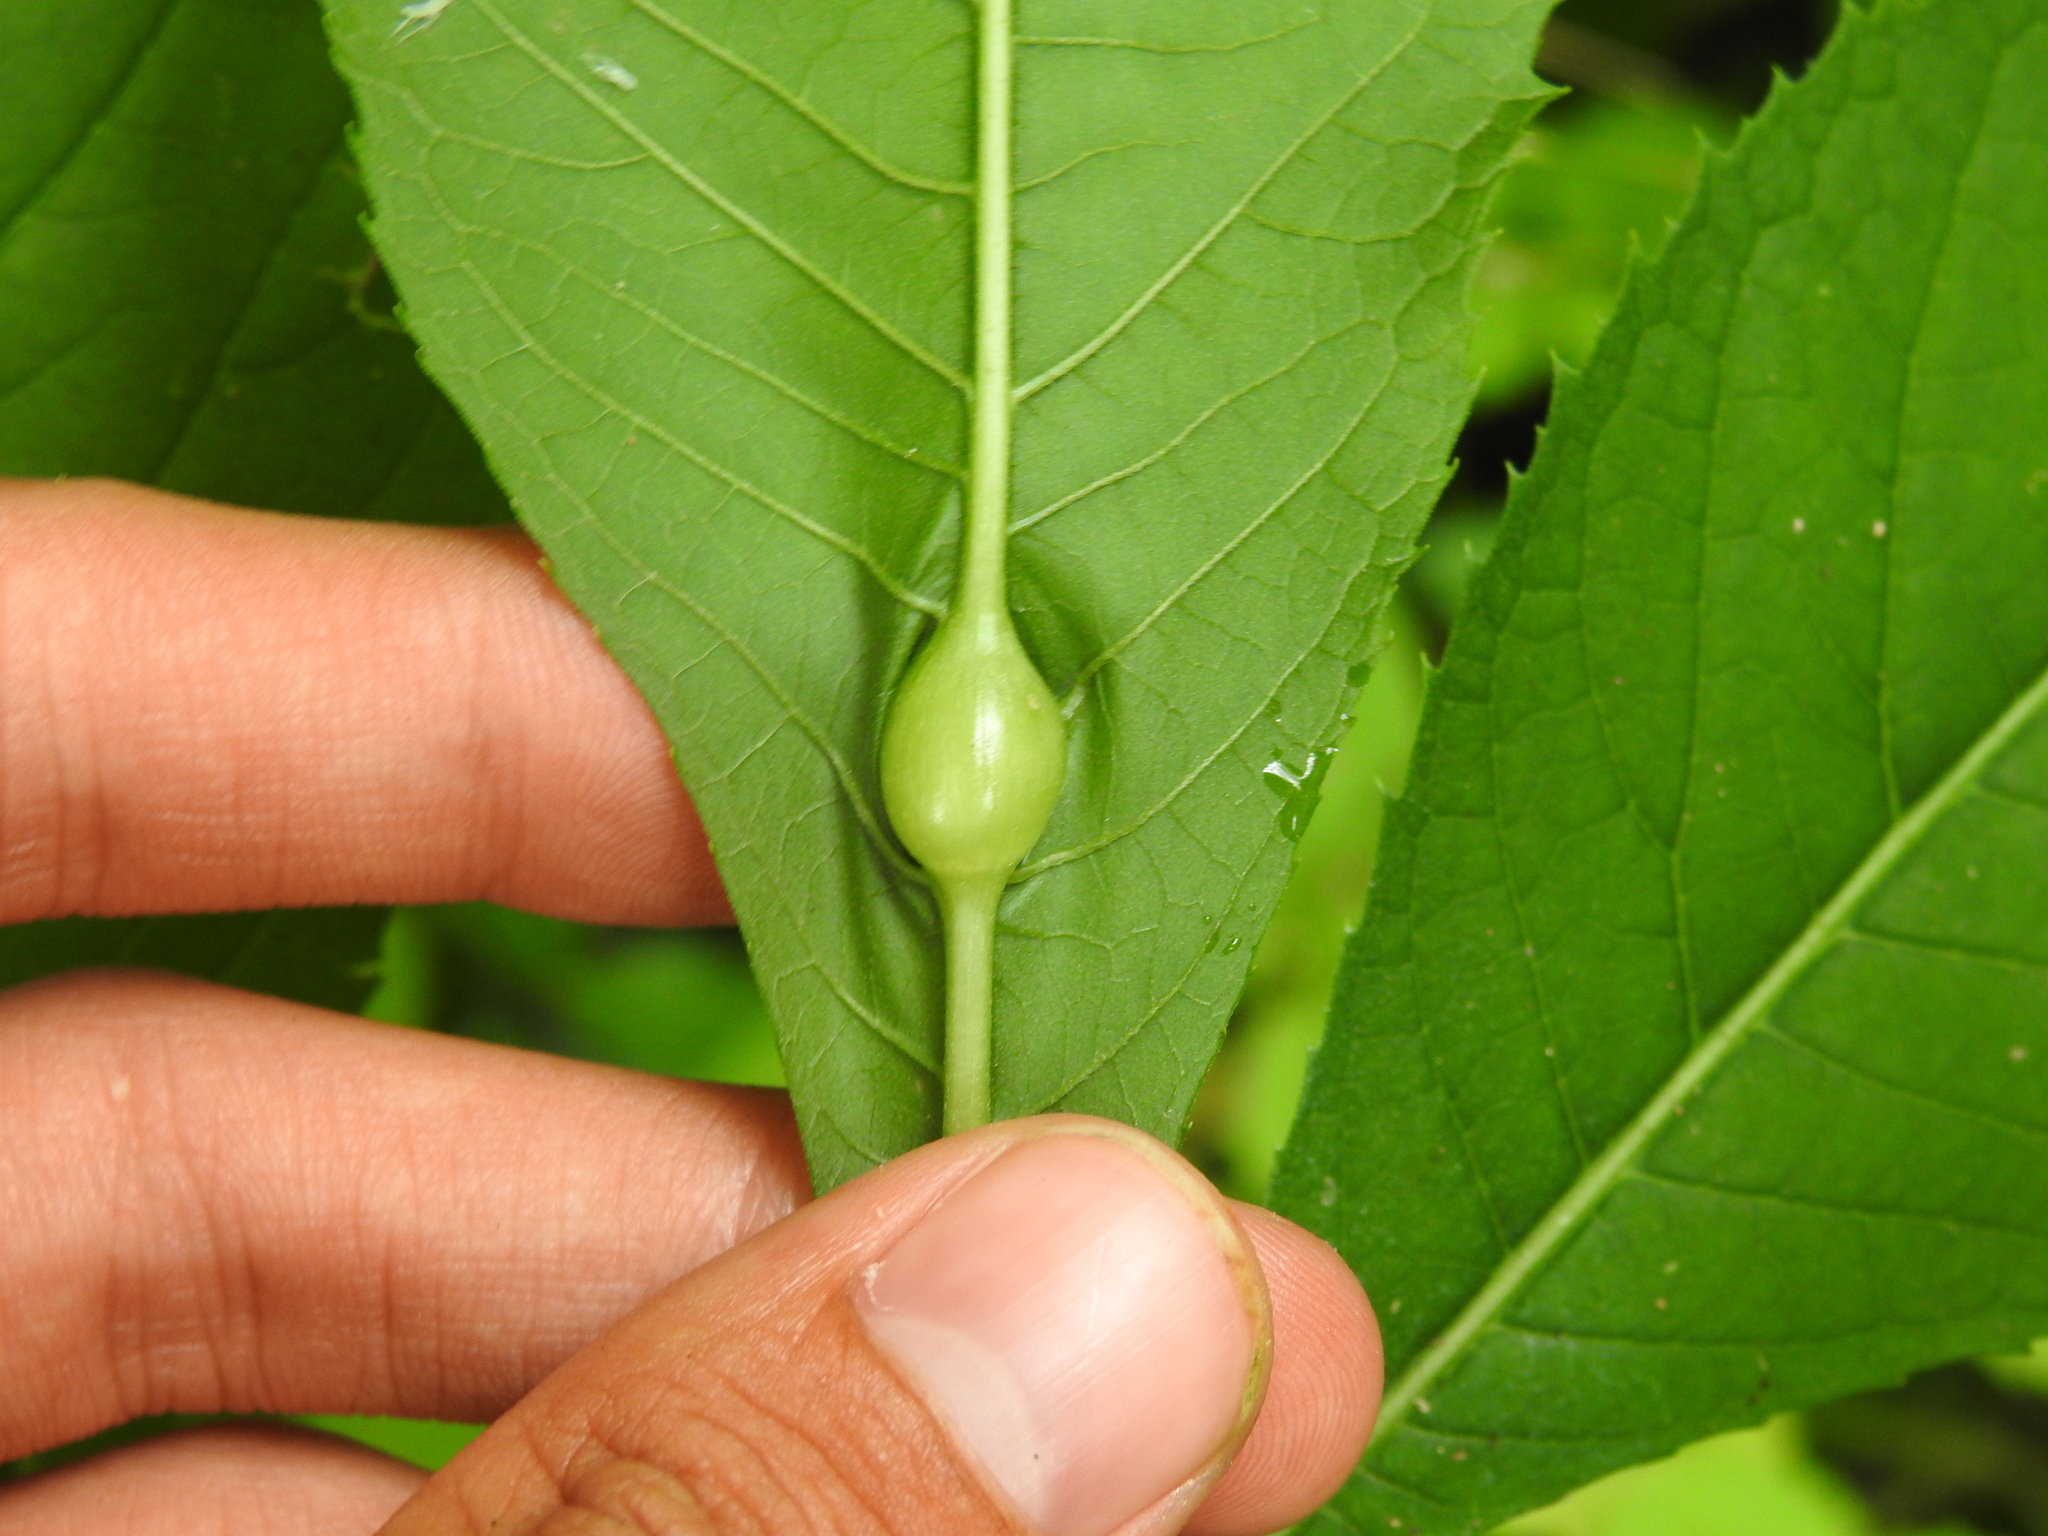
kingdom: Animalia
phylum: Arthropoda
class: Insecta
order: Diptera
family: Cecidomyiidae
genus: Neolasioptera
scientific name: Neolasioptera vernoniae
